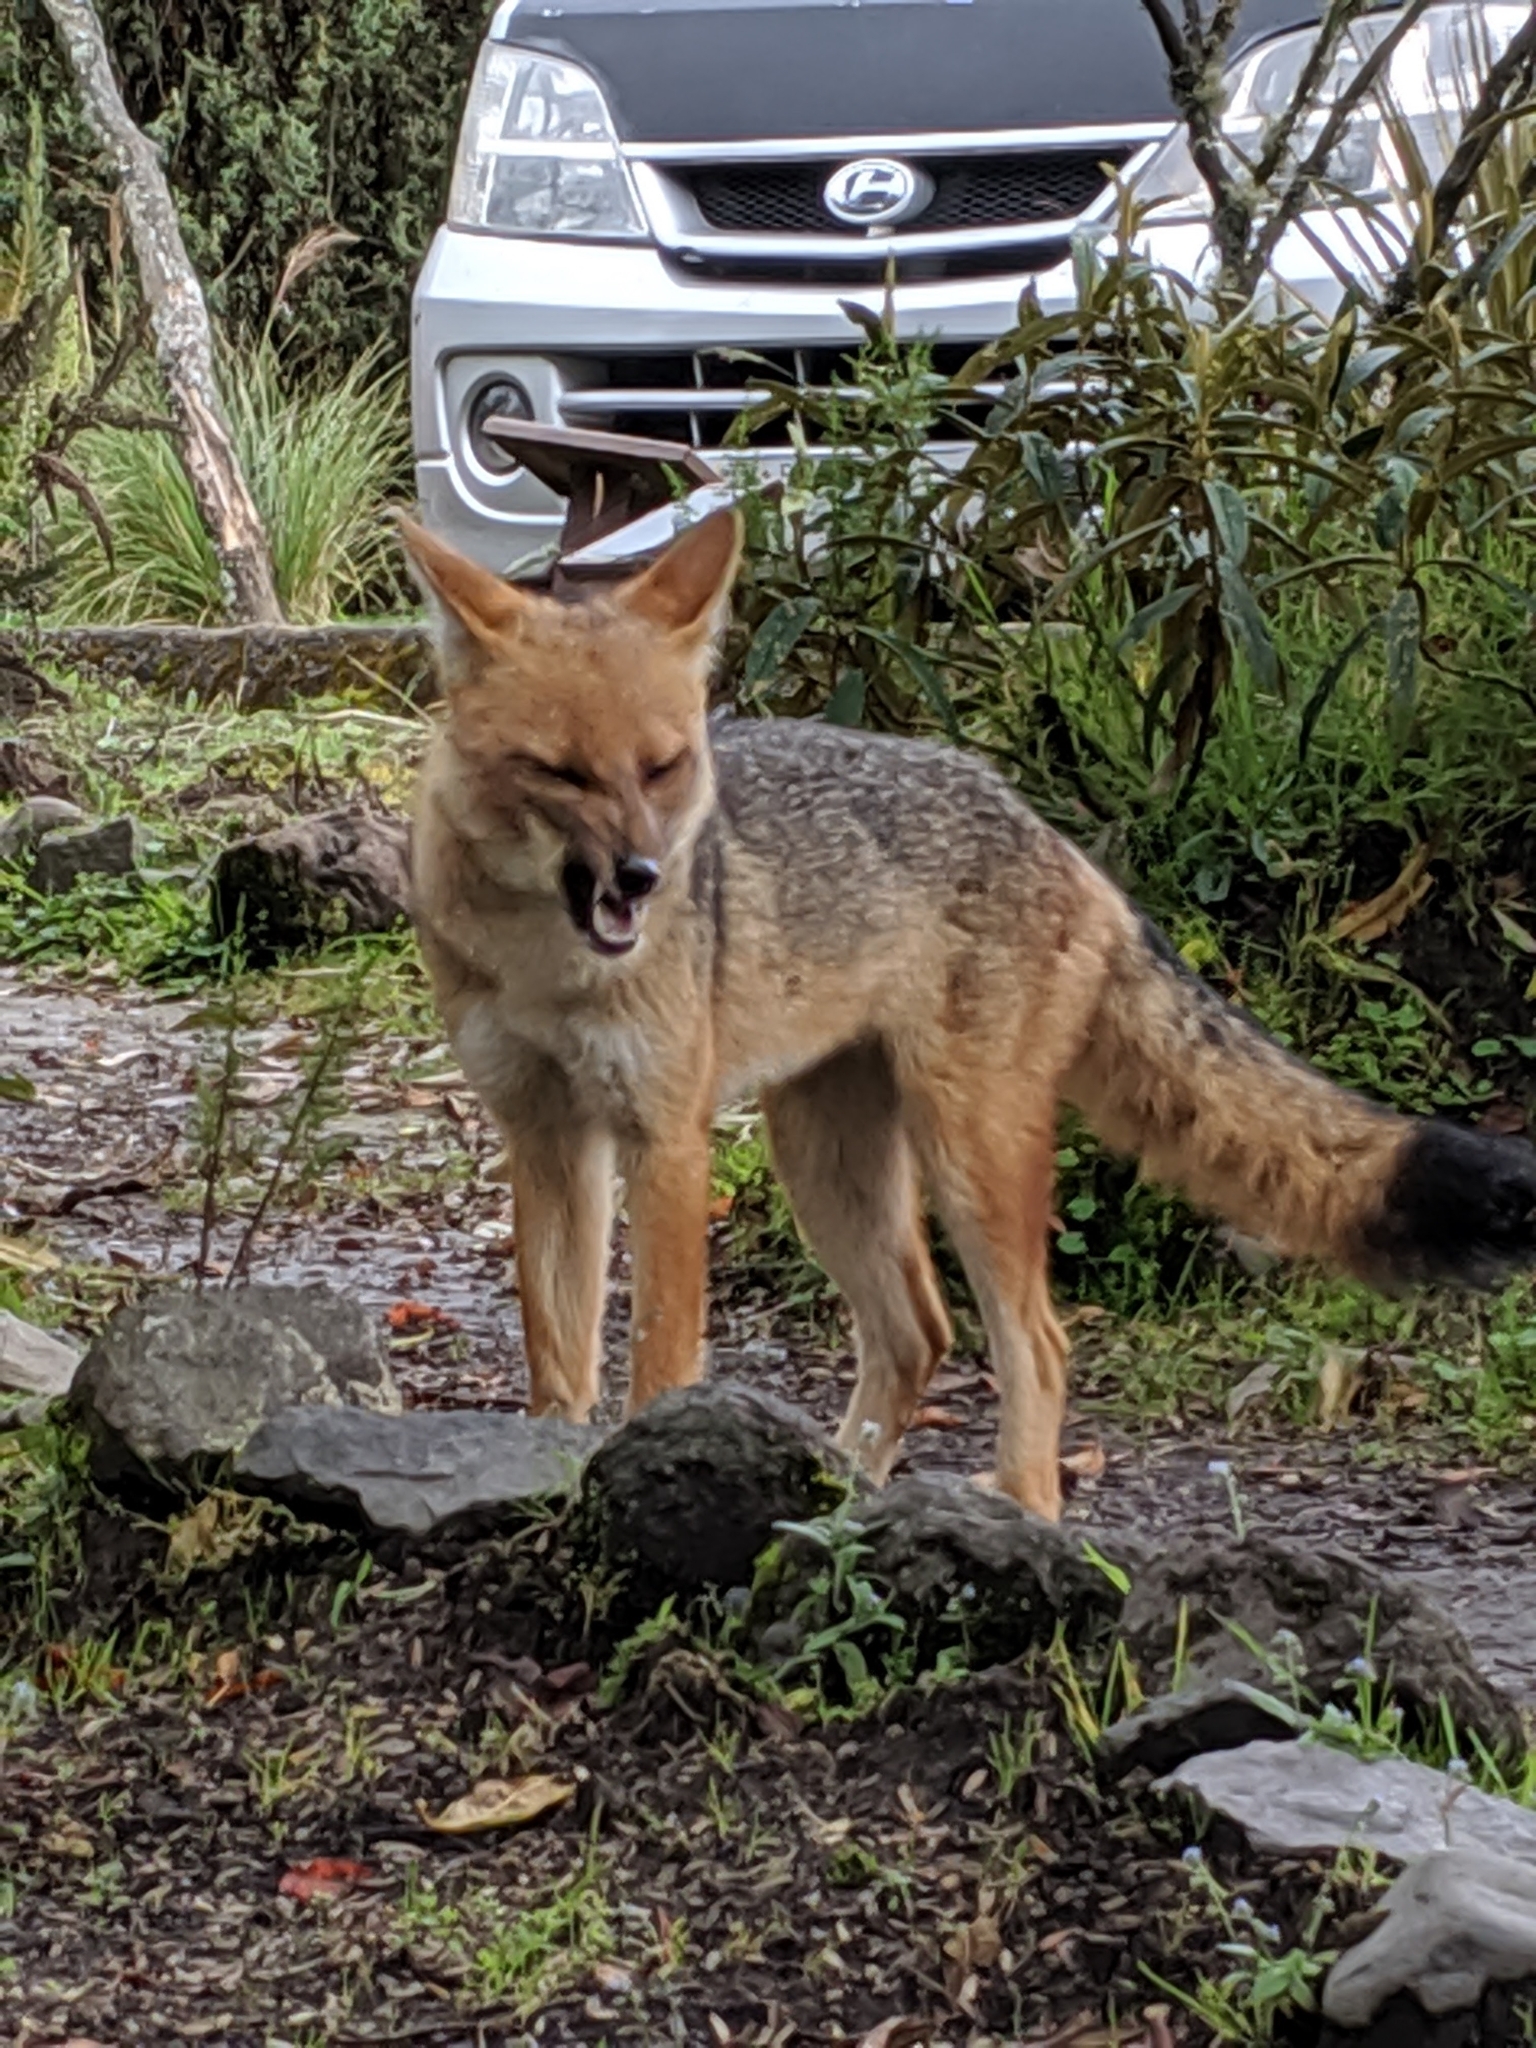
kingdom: Animalia
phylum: Chordata
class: Mammalia
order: Carnivora
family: Canidae
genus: Lycalopex
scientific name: Lycalopex culpaeus
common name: Culpeo
